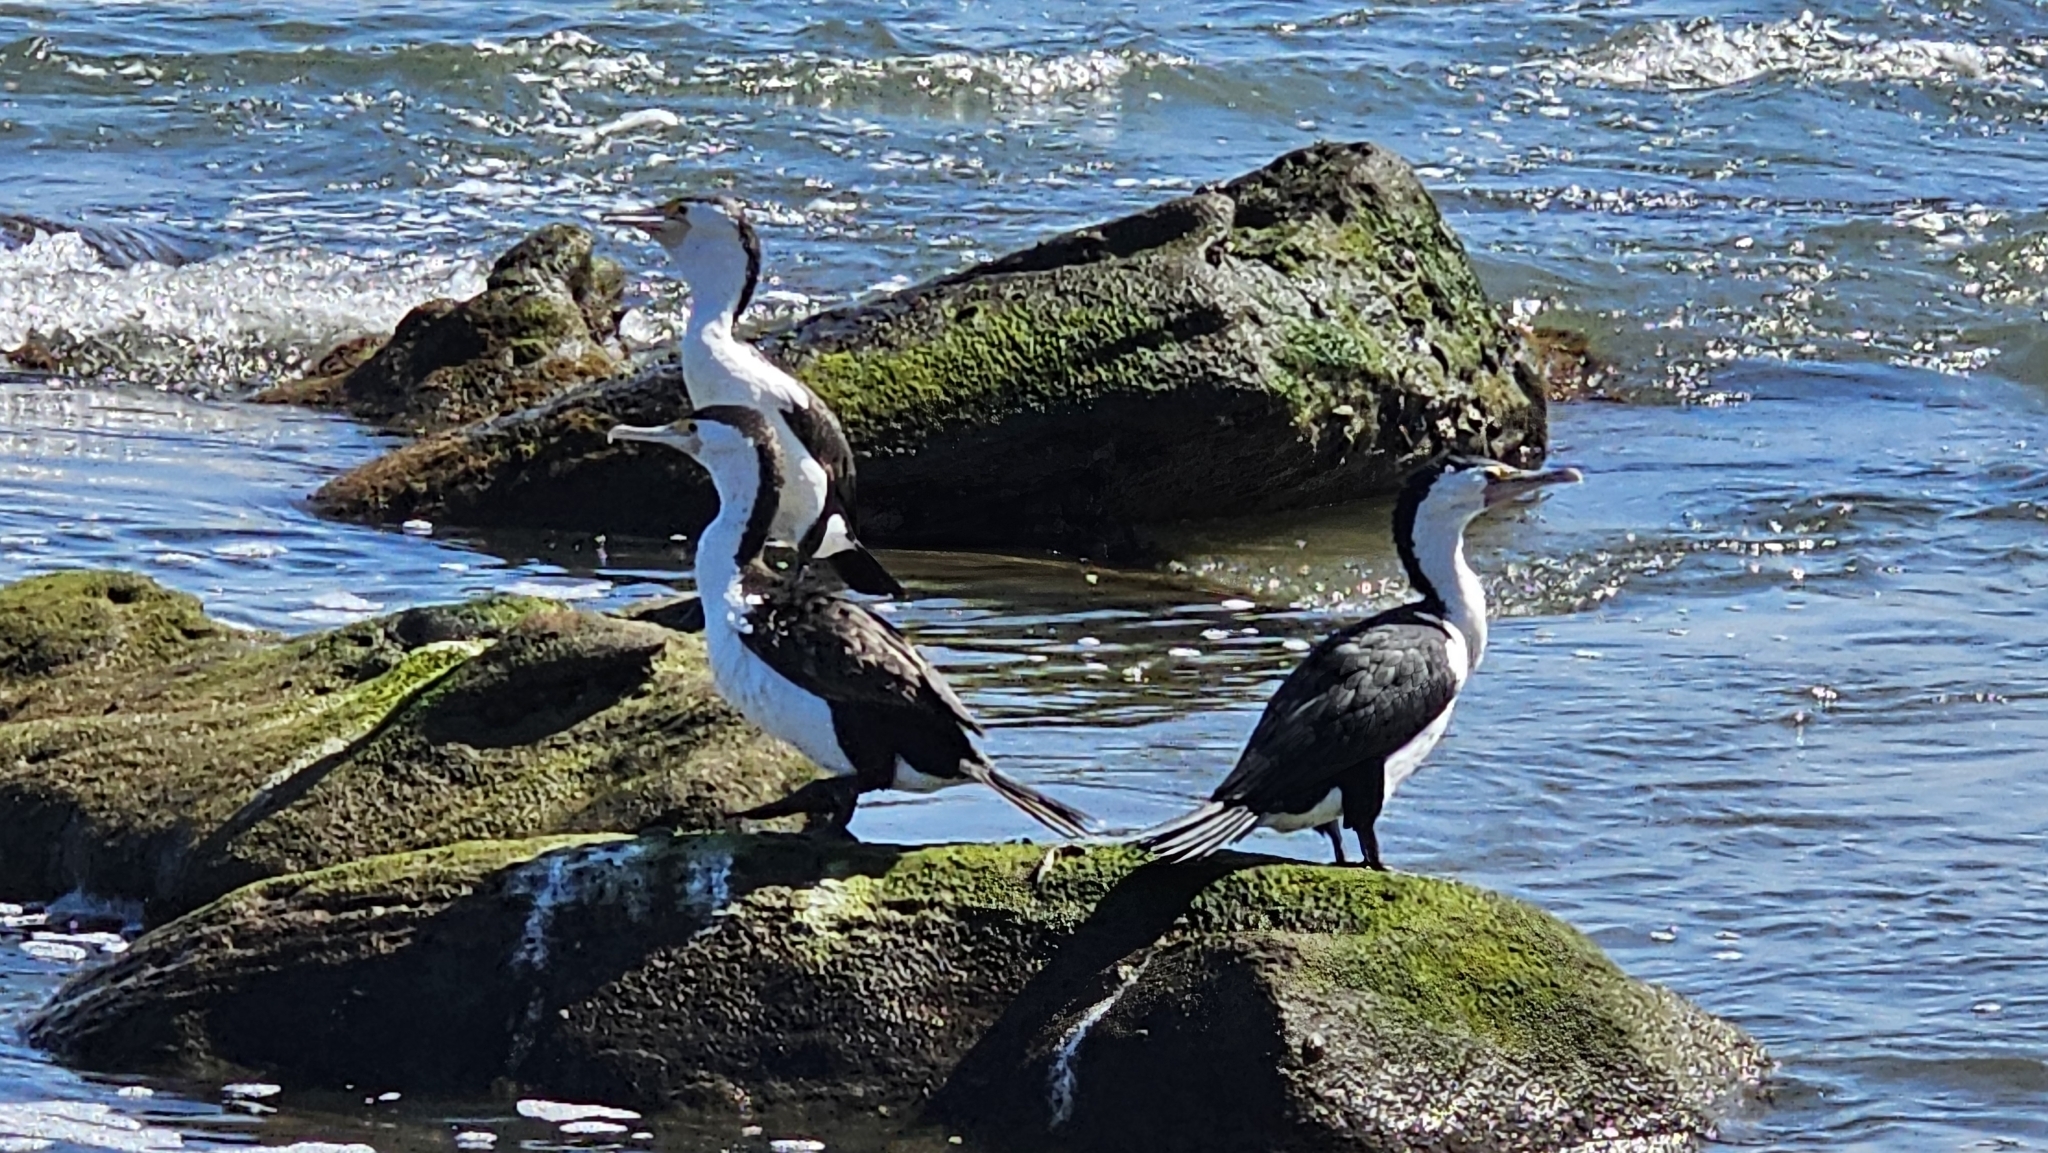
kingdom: Animalia
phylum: Chordata
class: Aves
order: Suliformes
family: Phalacrocoracidae
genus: Phalacrocorax
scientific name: Phalacrocorax varius
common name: Pied cormorant
